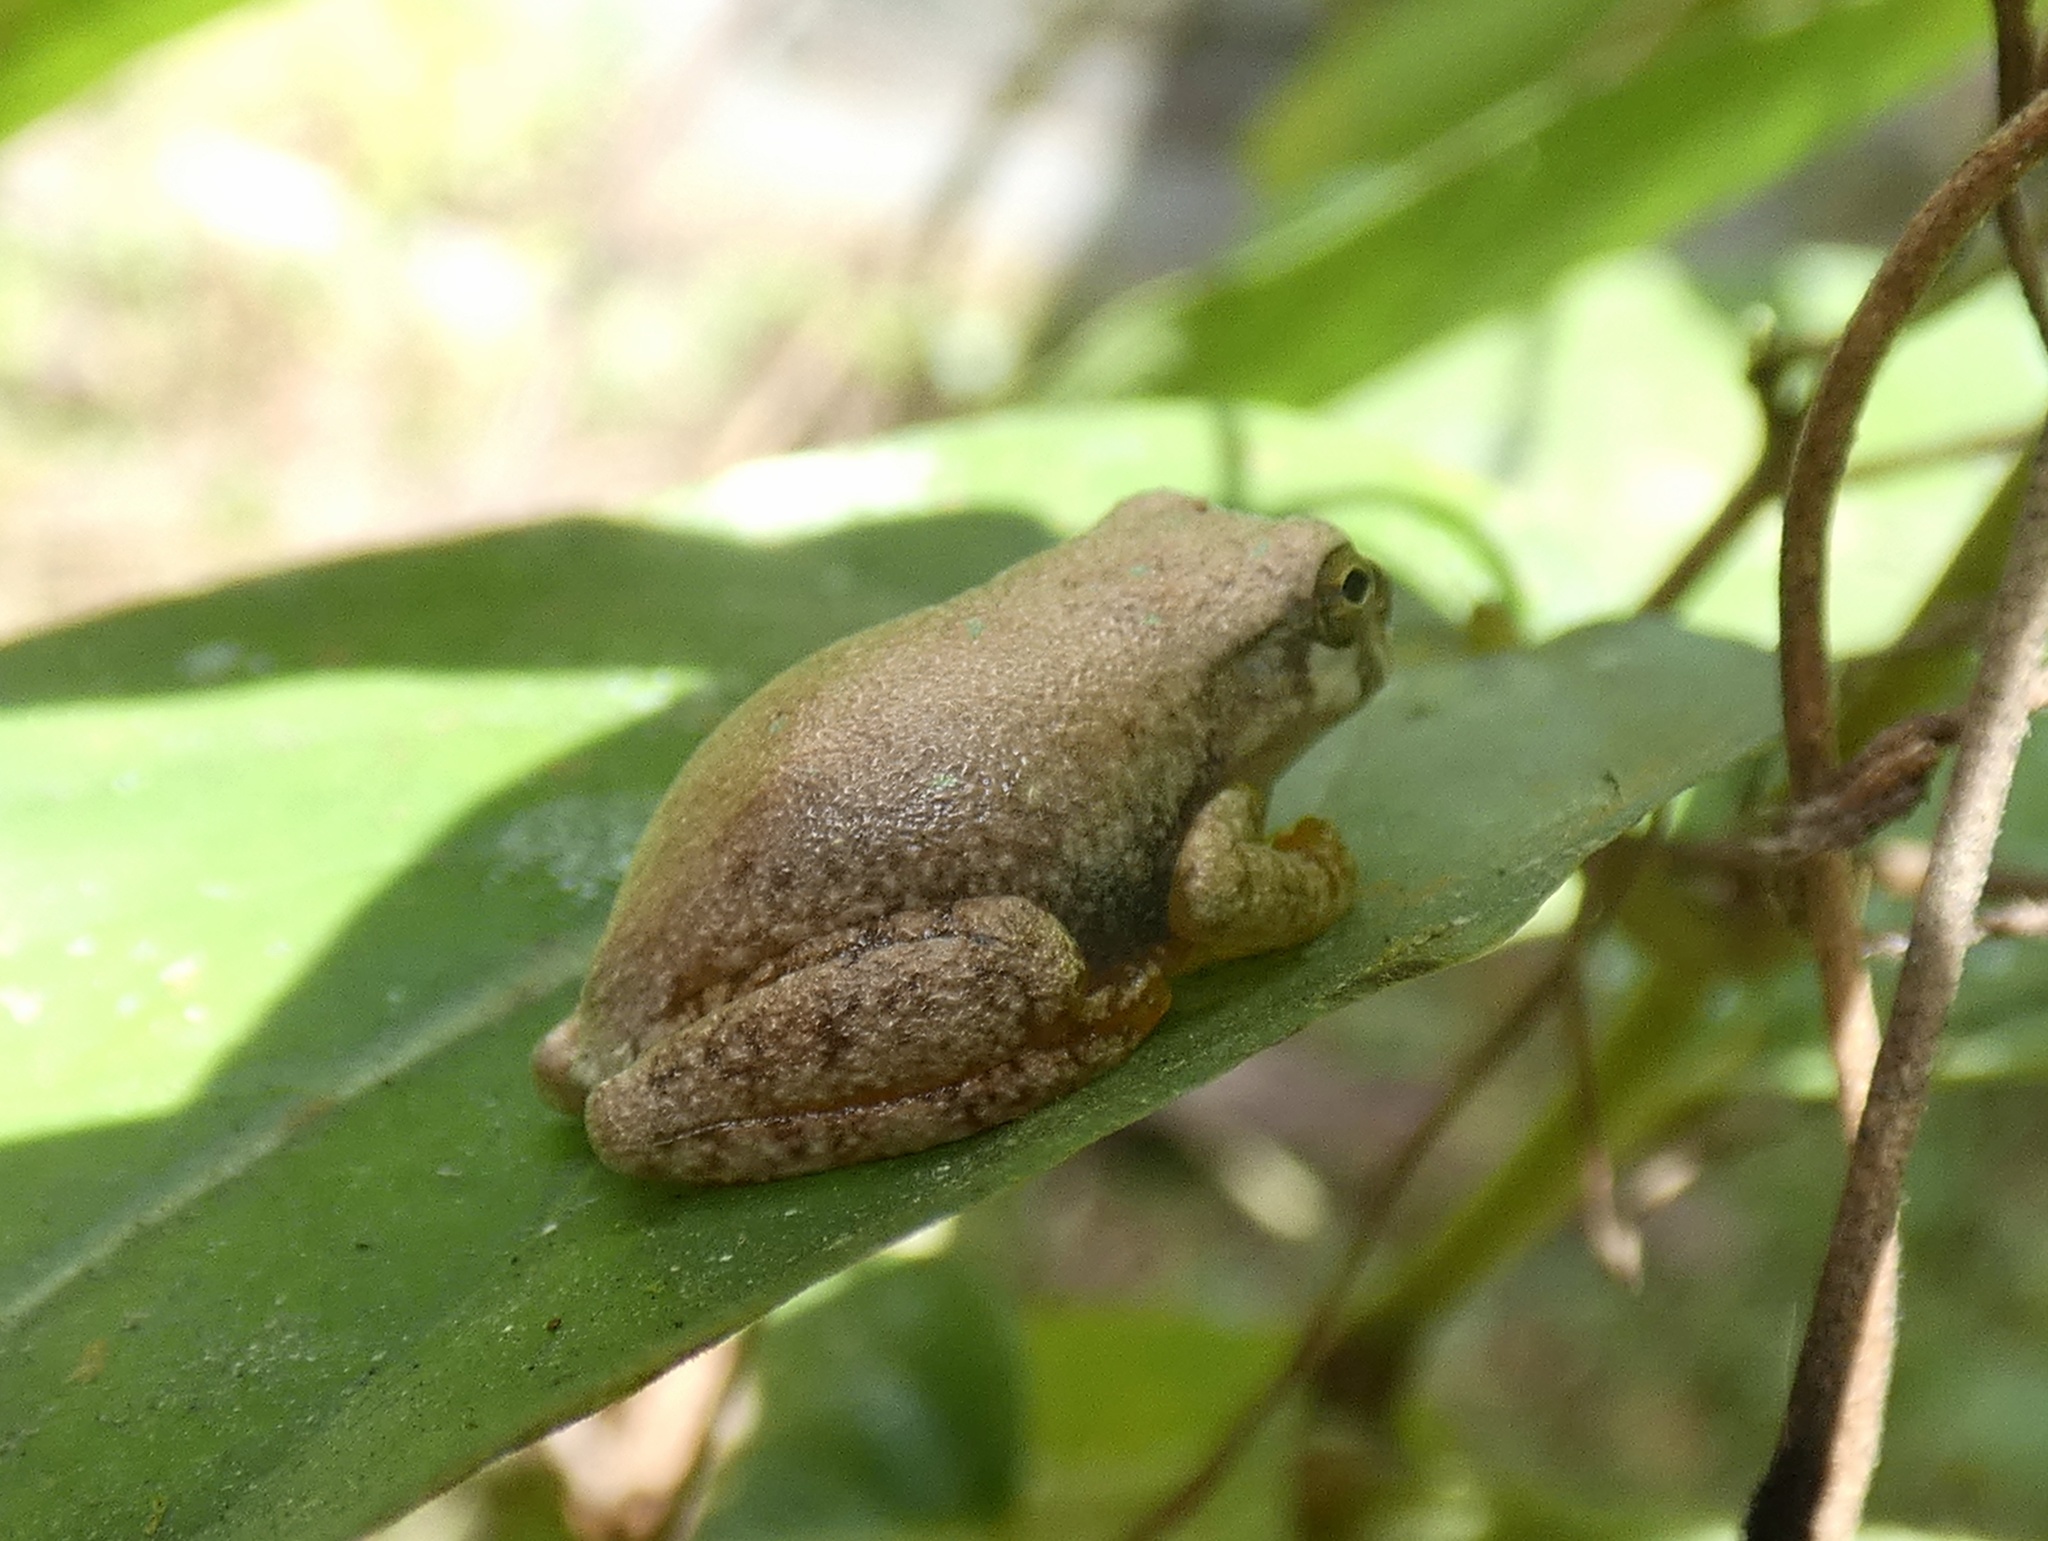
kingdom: Animalia
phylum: Chordata
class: Amphibia
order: Anura
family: Hylidae
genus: Smilisca
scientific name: Smilisca sila
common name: Panama cross-banded treefrog
